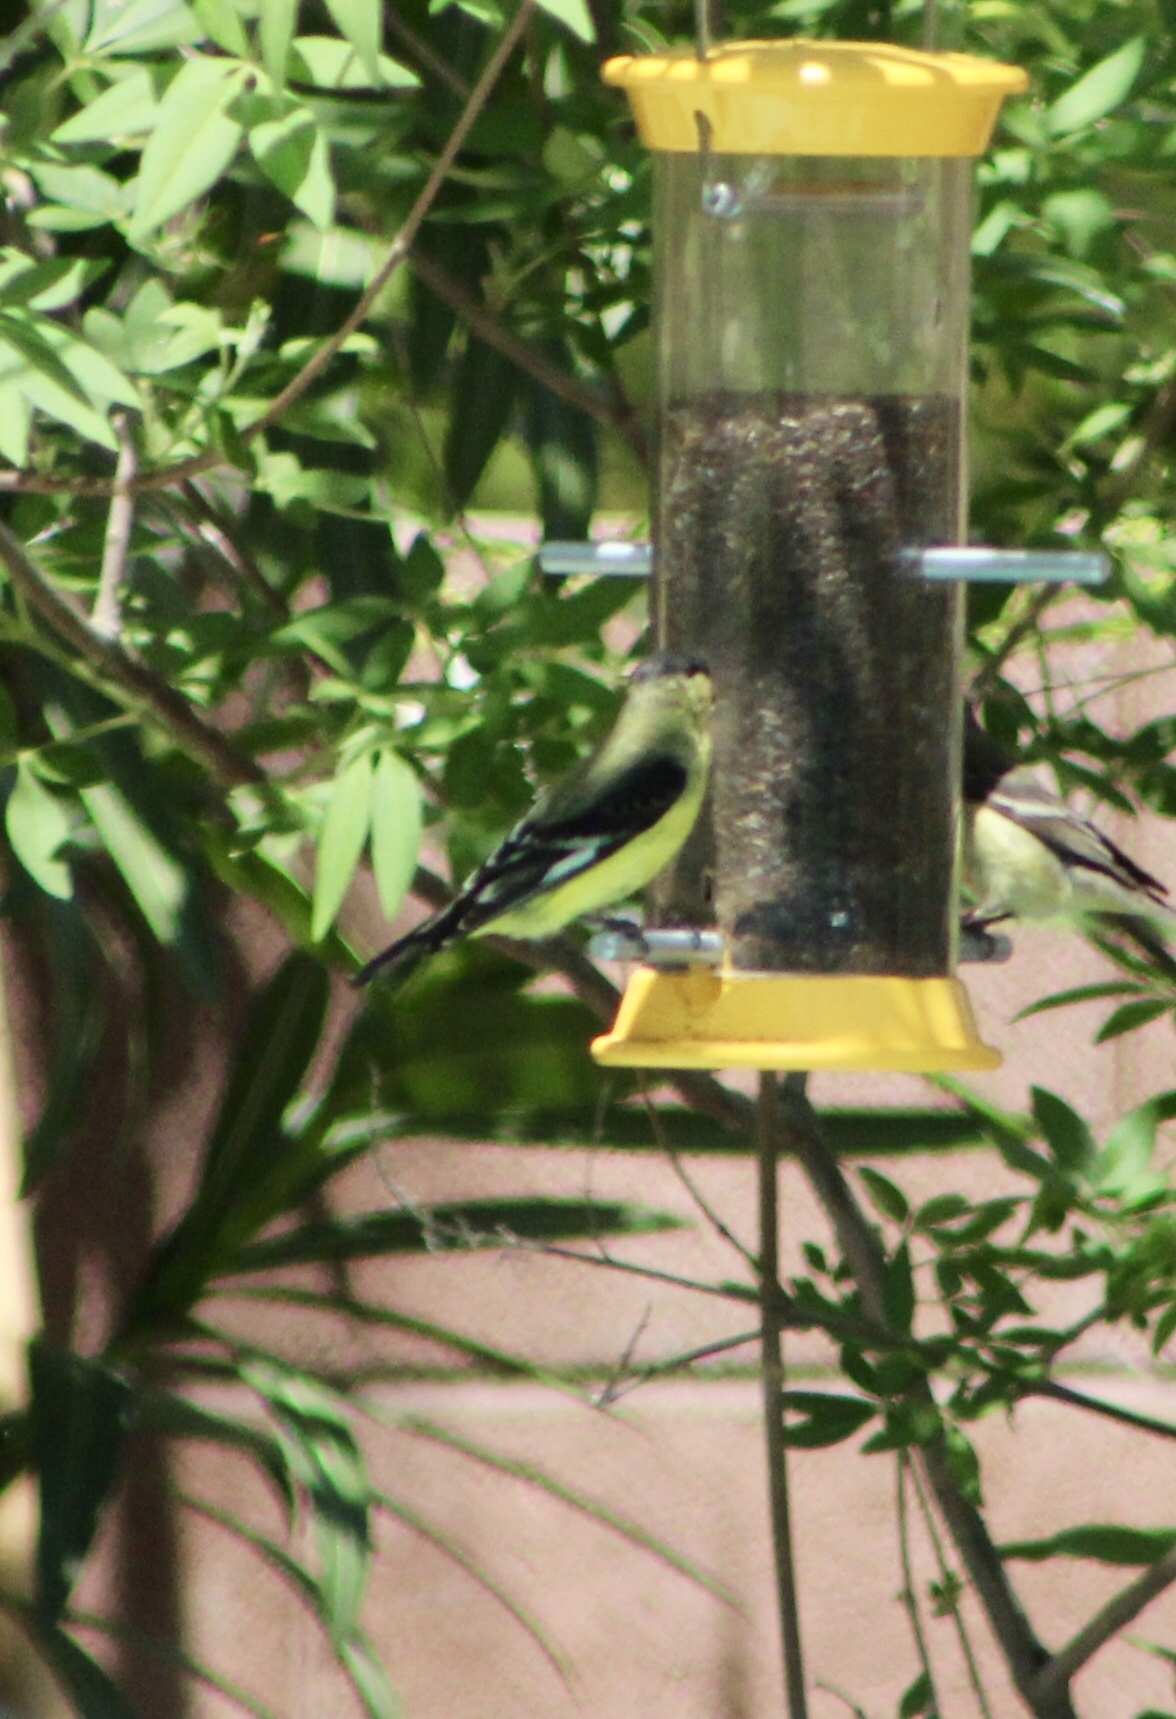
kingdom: Animalia
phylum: Chordata
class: Aves
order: Passeriformes
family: Fringillidae
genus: Spinus
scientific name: Spinus psaltria
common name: Lesser goldfinch
